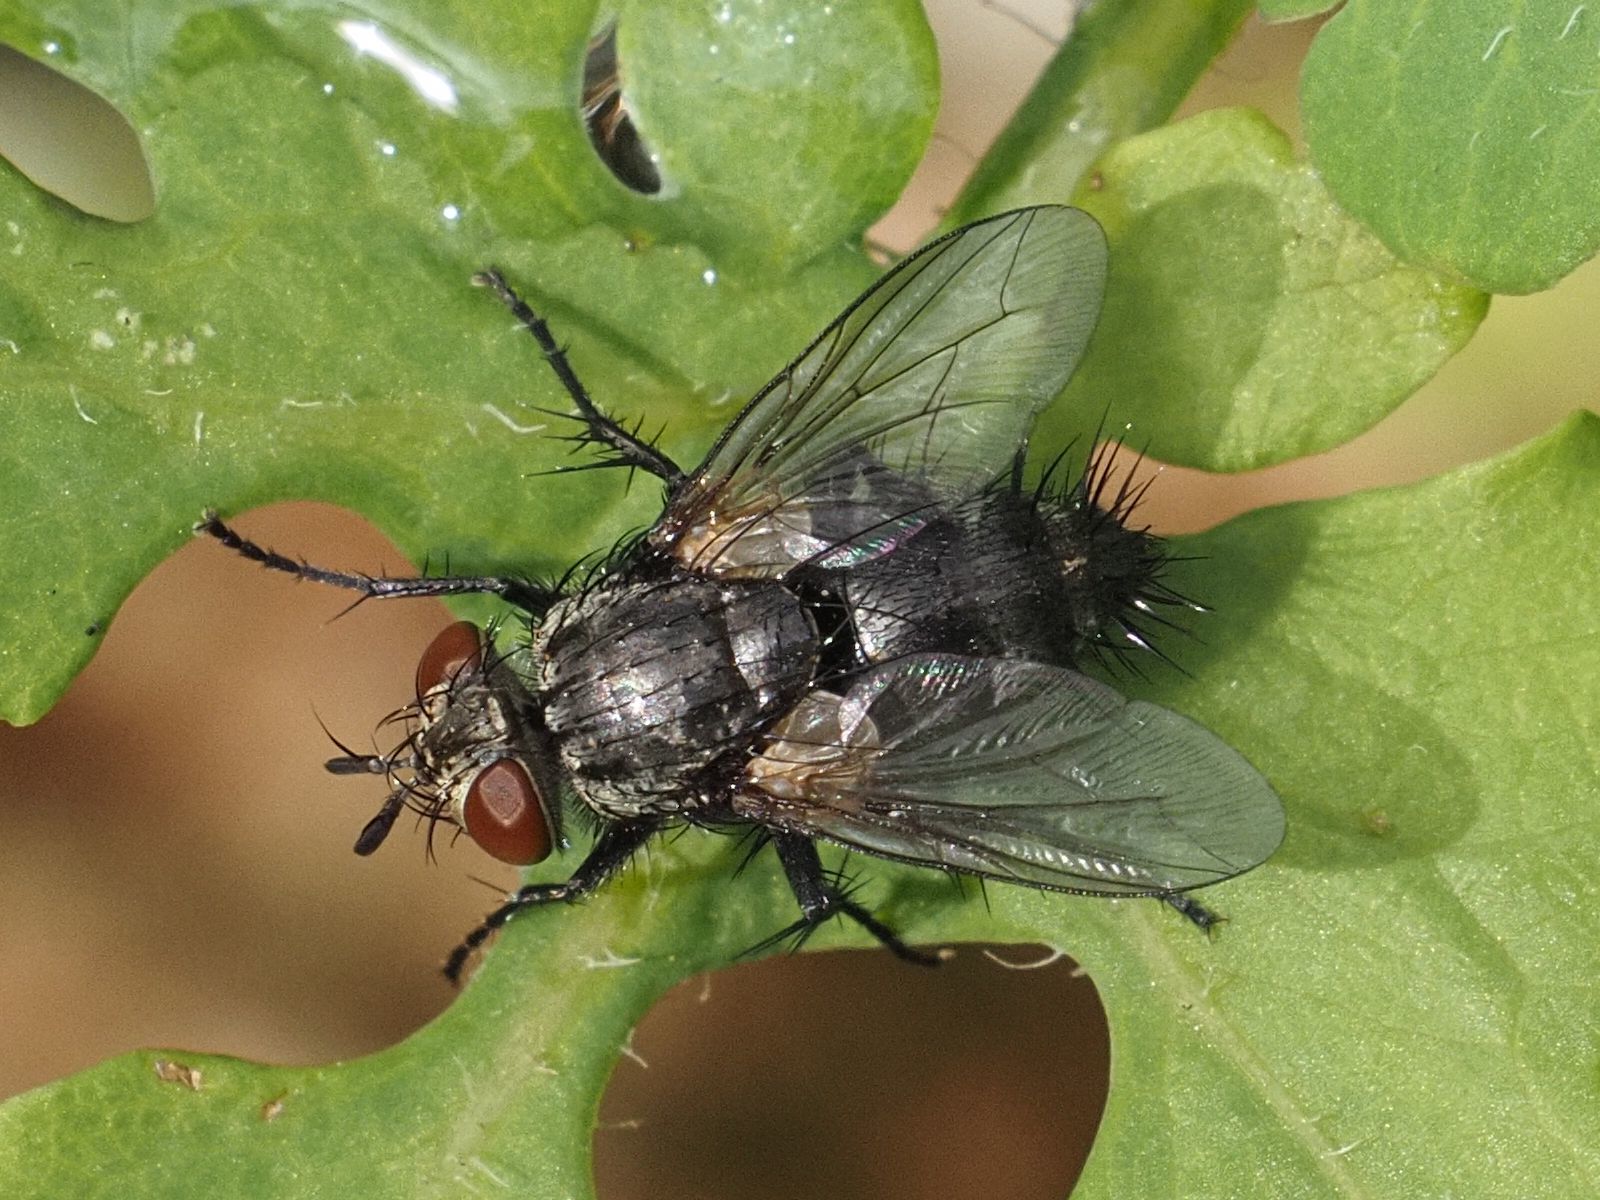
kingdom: Animalia
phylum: Arthropoda
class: Insecta
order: Diptera
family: Tachinidae
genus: Voria
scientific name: Voria ruralis
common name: Parasitic fly
